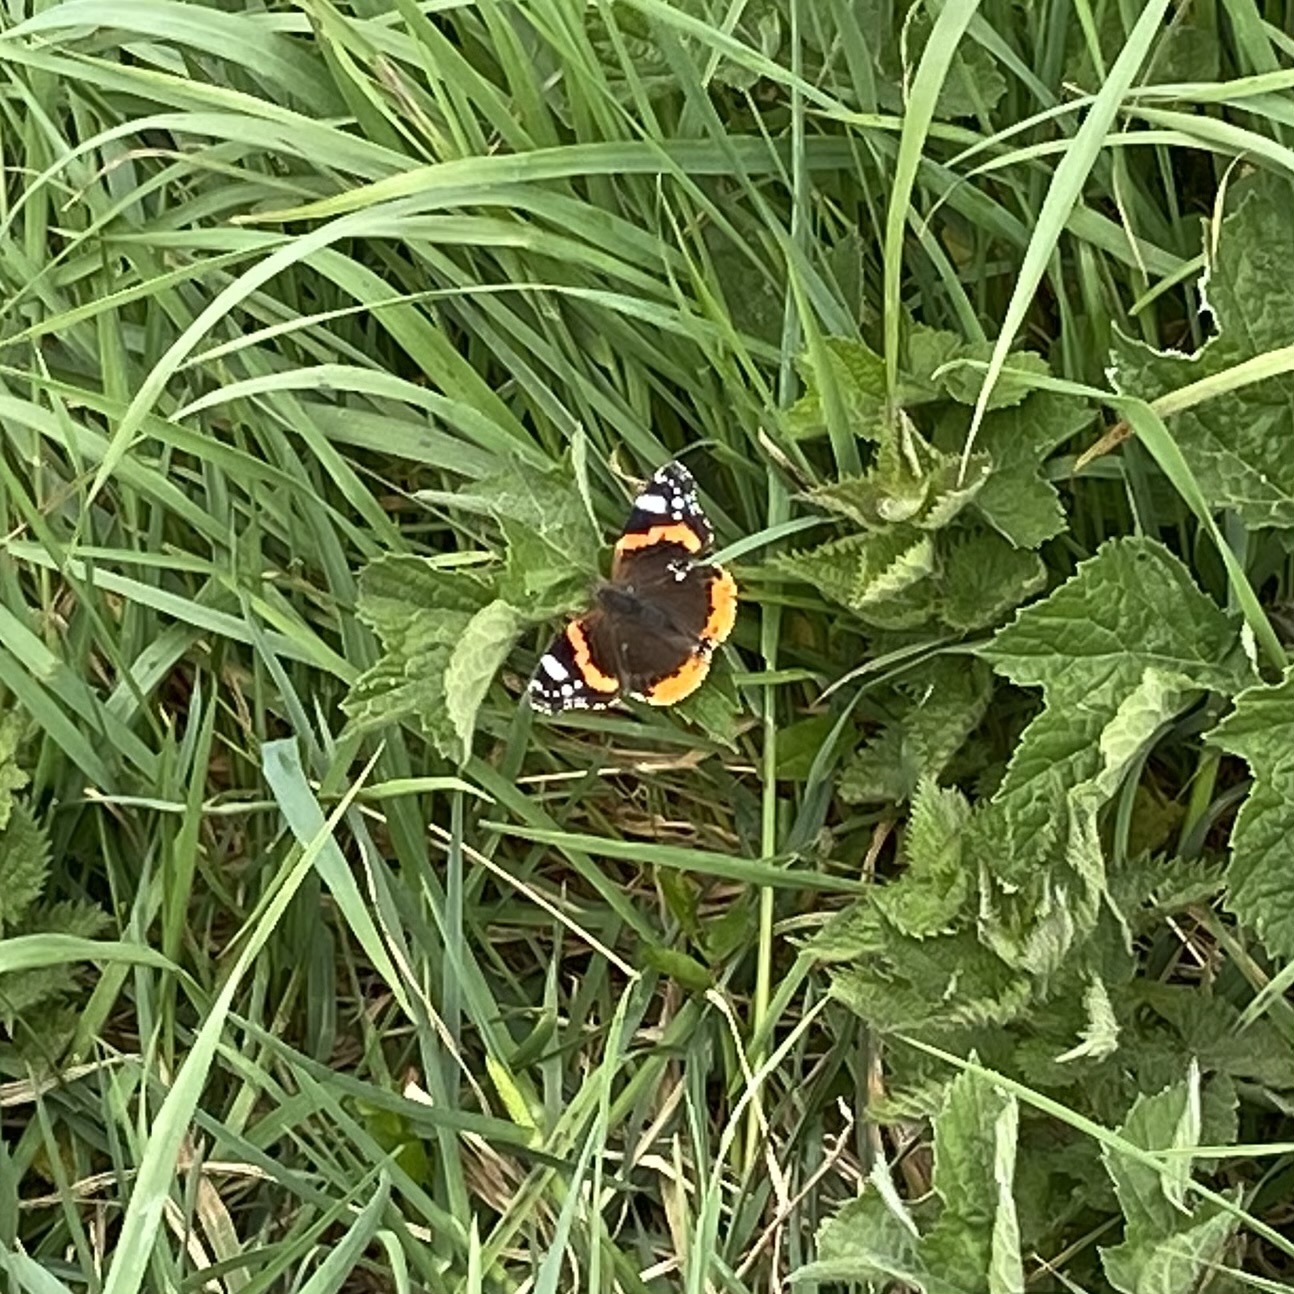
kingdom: Animalia
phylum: Arthropoda
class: Insecta
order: Lepidoptera
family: Nymphalidae
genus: Vanessa
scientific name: Vanessa atalanta
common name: Red admiral
